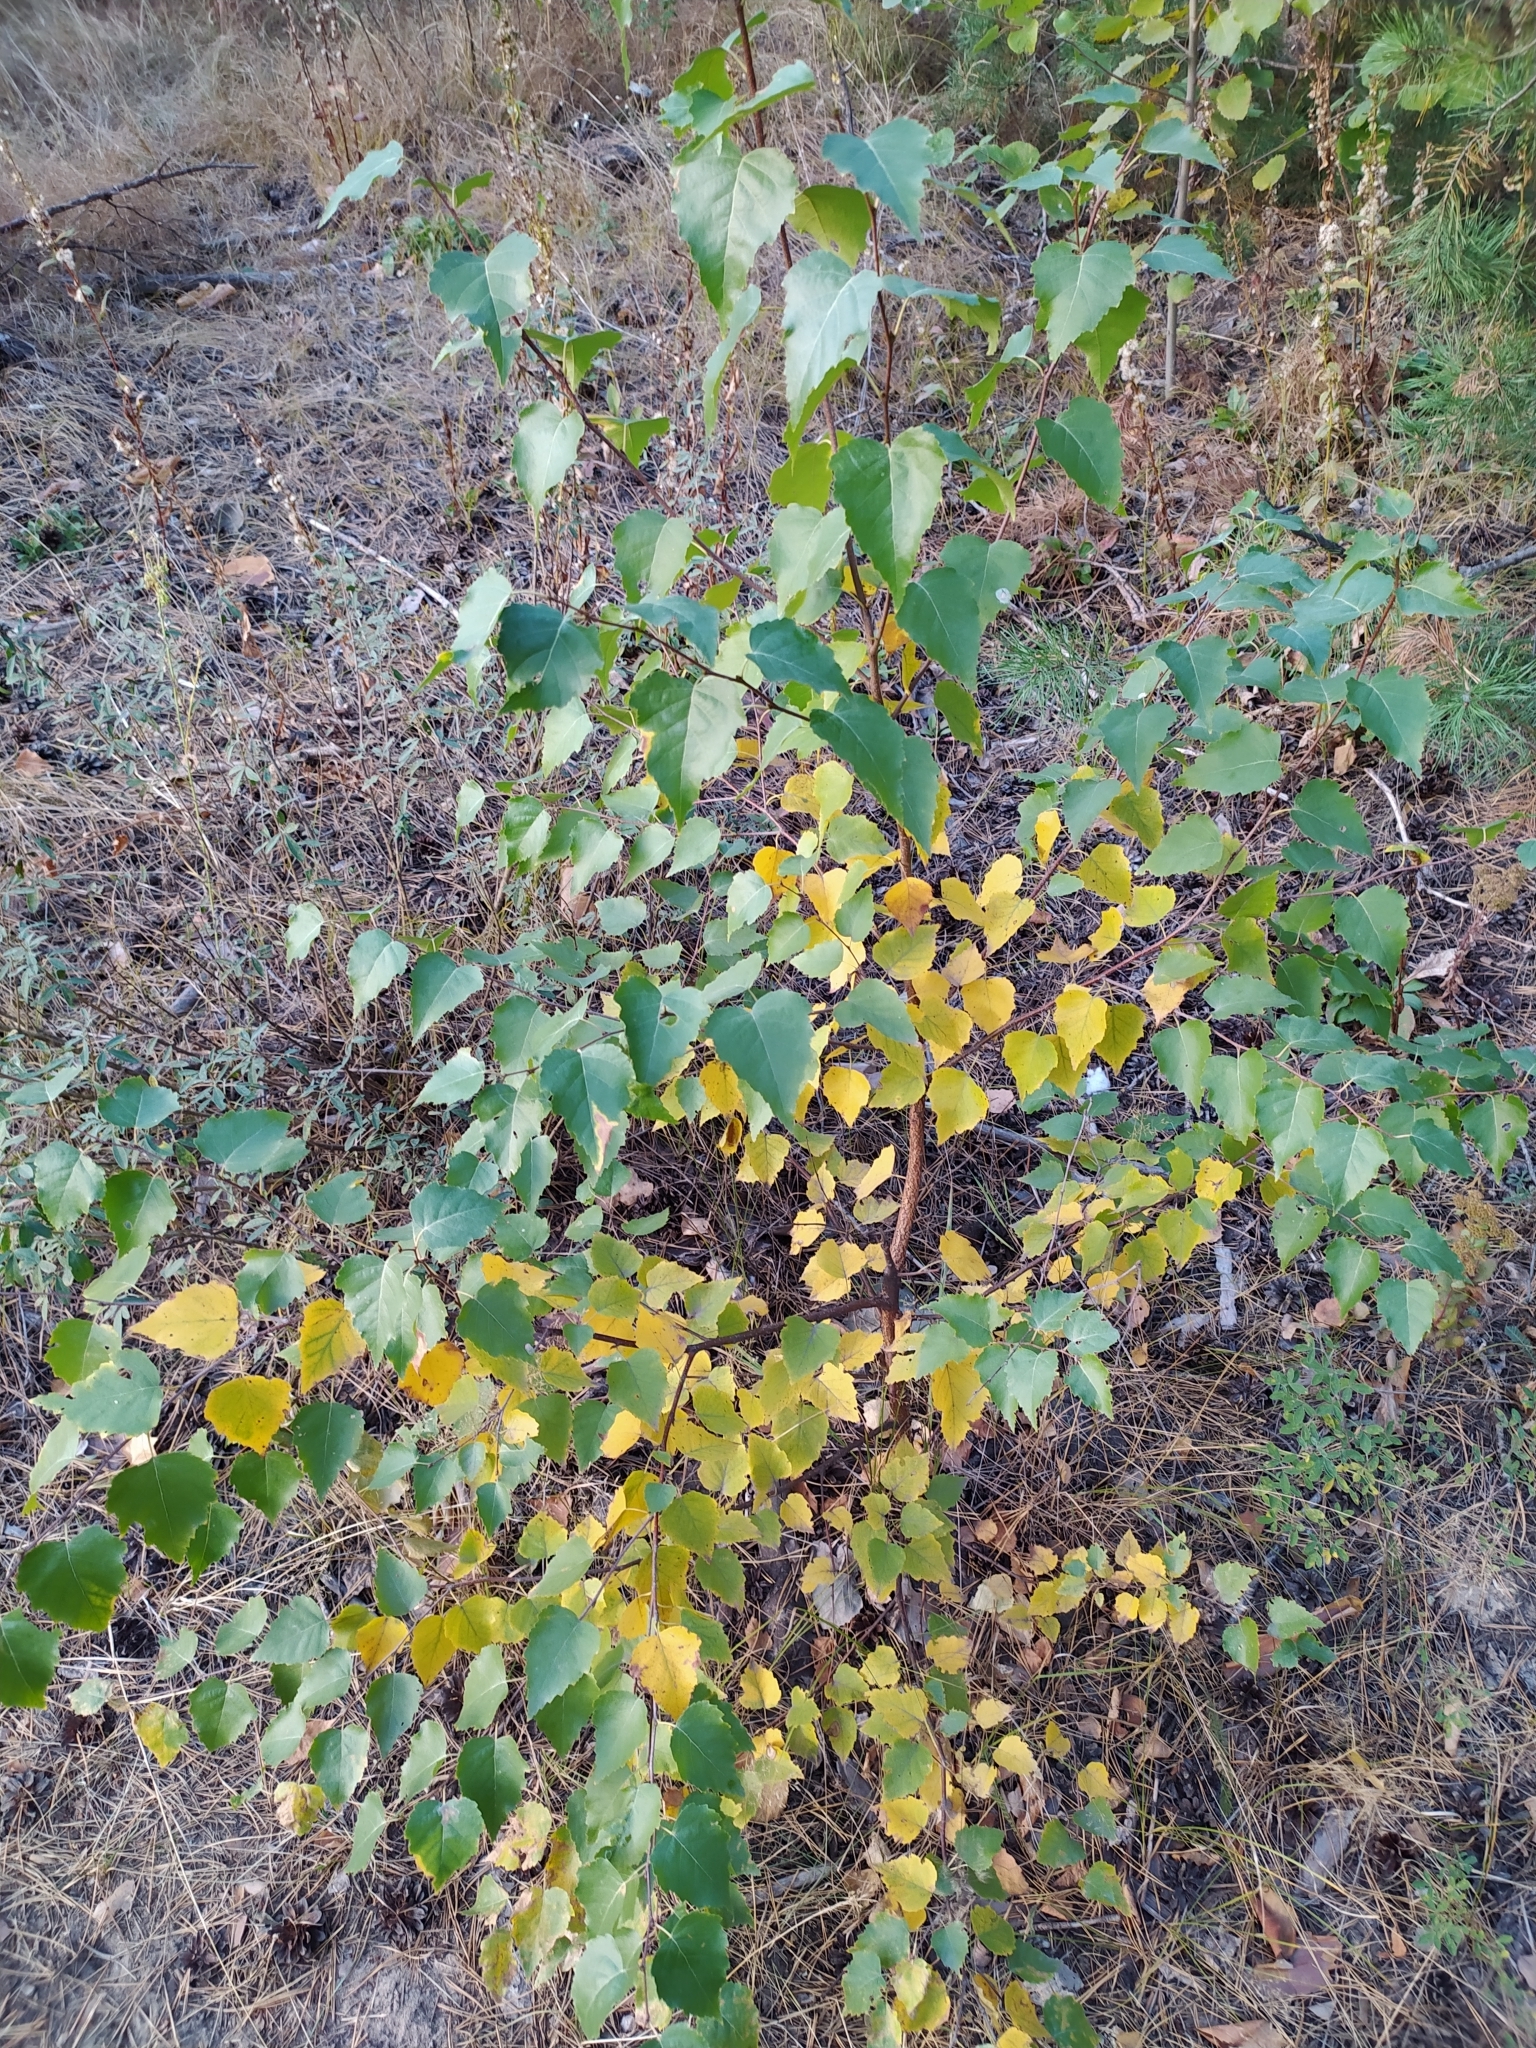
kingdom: Plantae
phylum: Tracheophyta
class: Magnoliopsida
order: Fagales
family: Betulaceae
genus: Betula
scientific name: Betula pendula
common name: Silver birch
